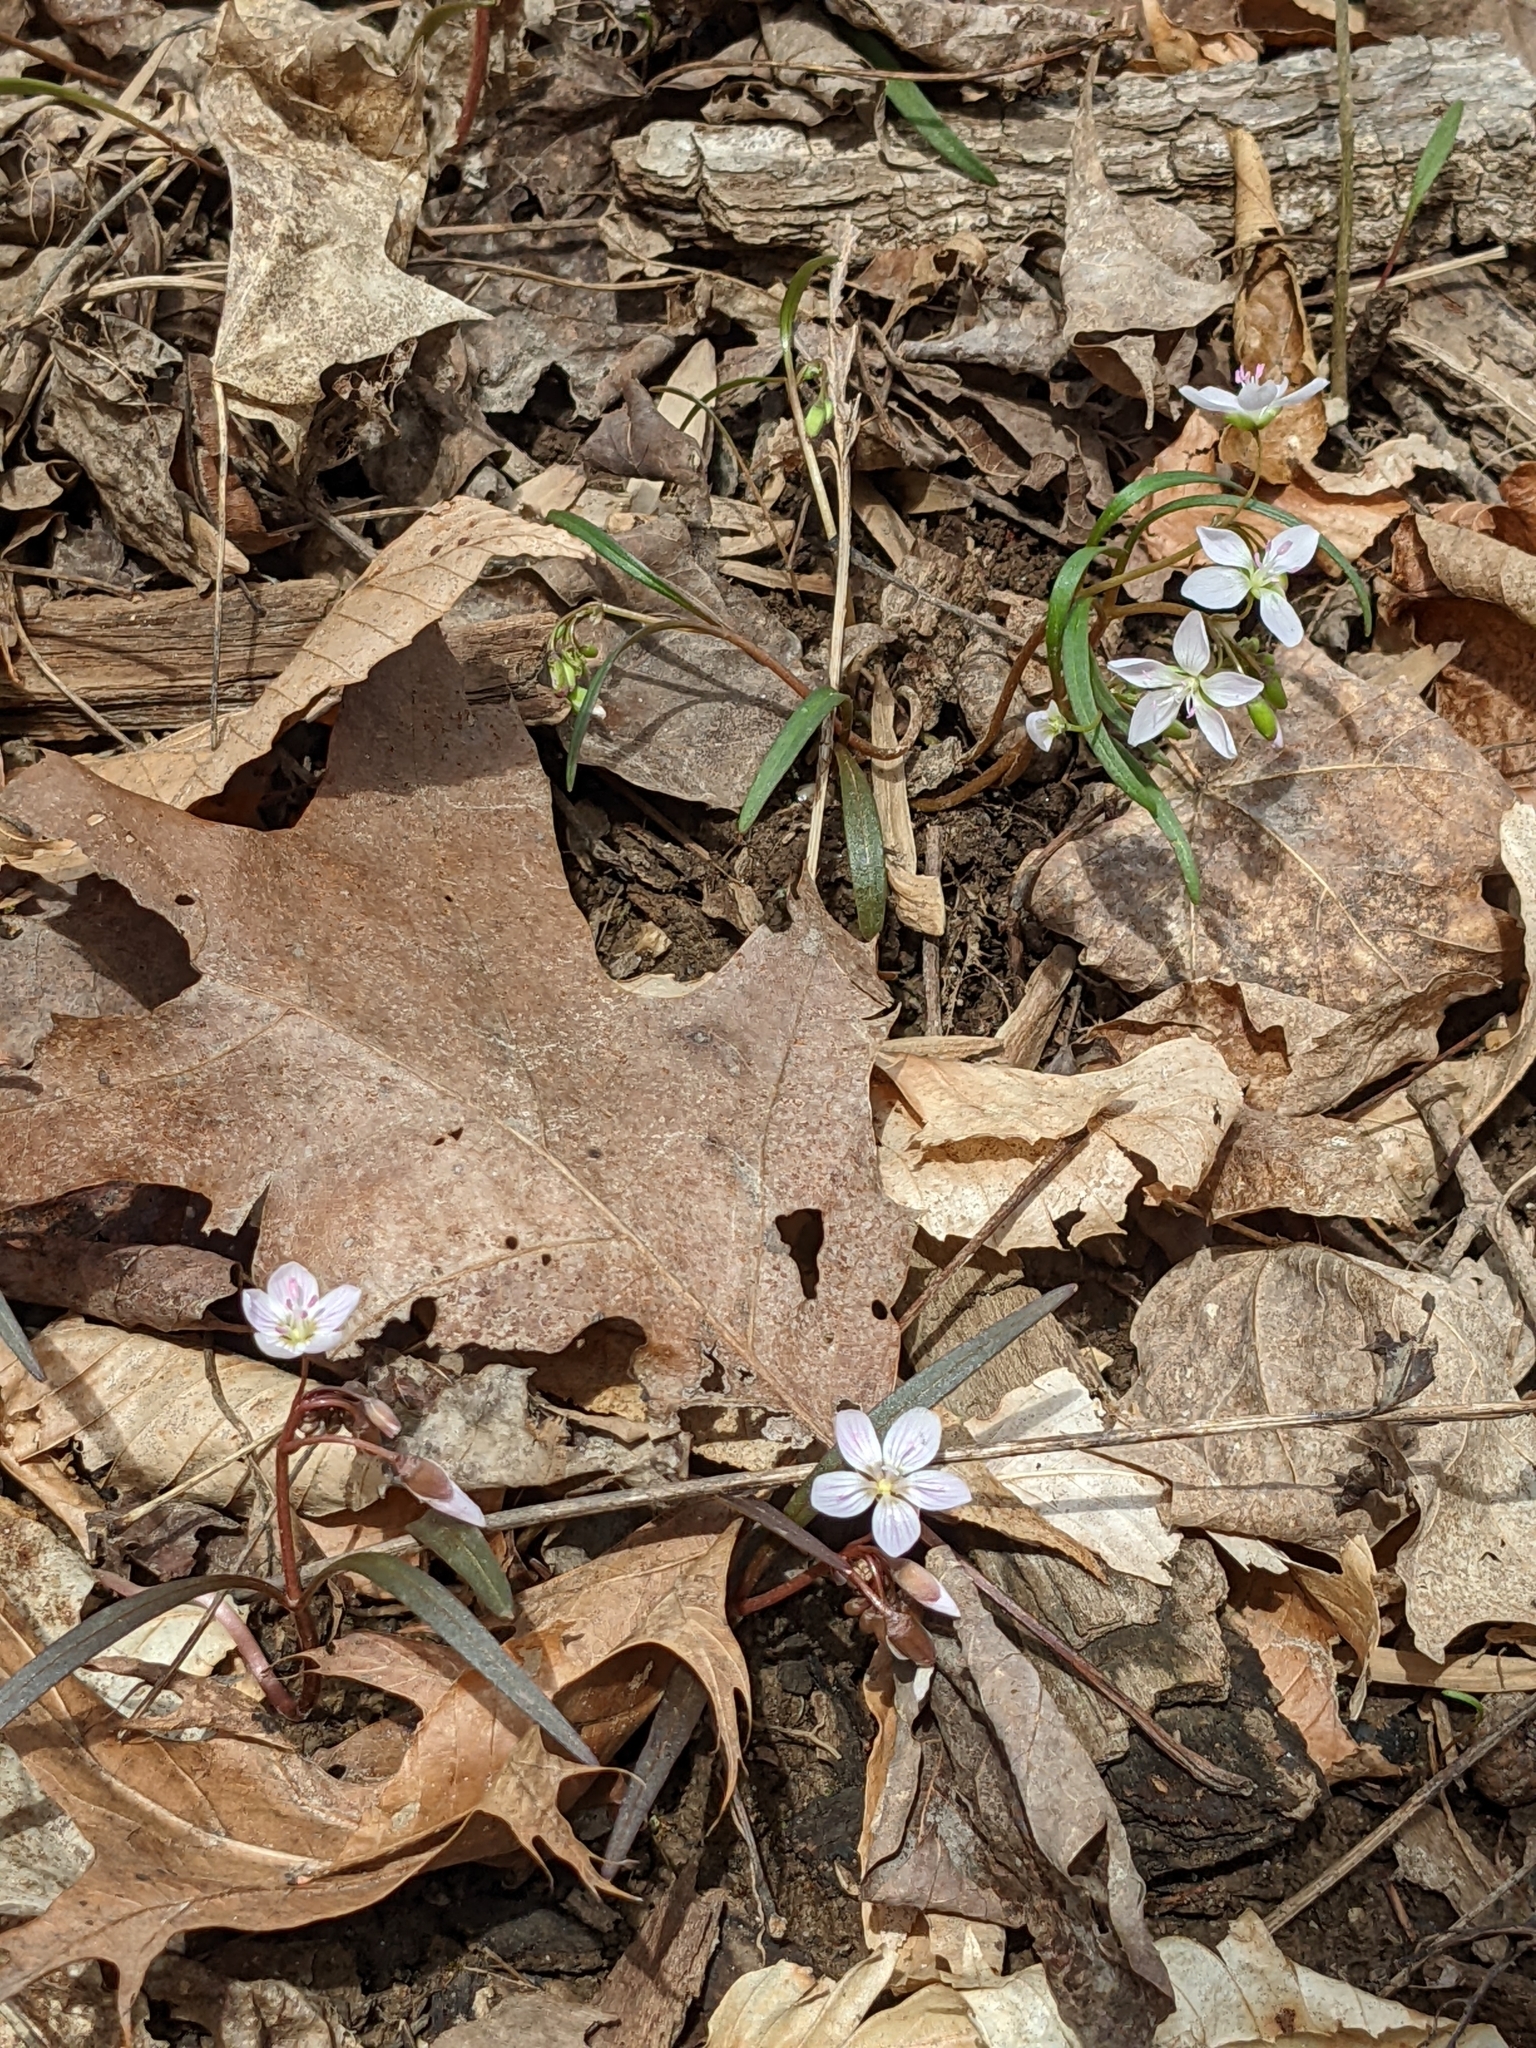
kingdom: Plantae
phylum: Tracheophyta
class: Magnoliopsida
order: Caryophyllales
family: Montiaceae
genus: Claytonia
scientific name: Claytonia virginica
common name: Virginia springbeauty
